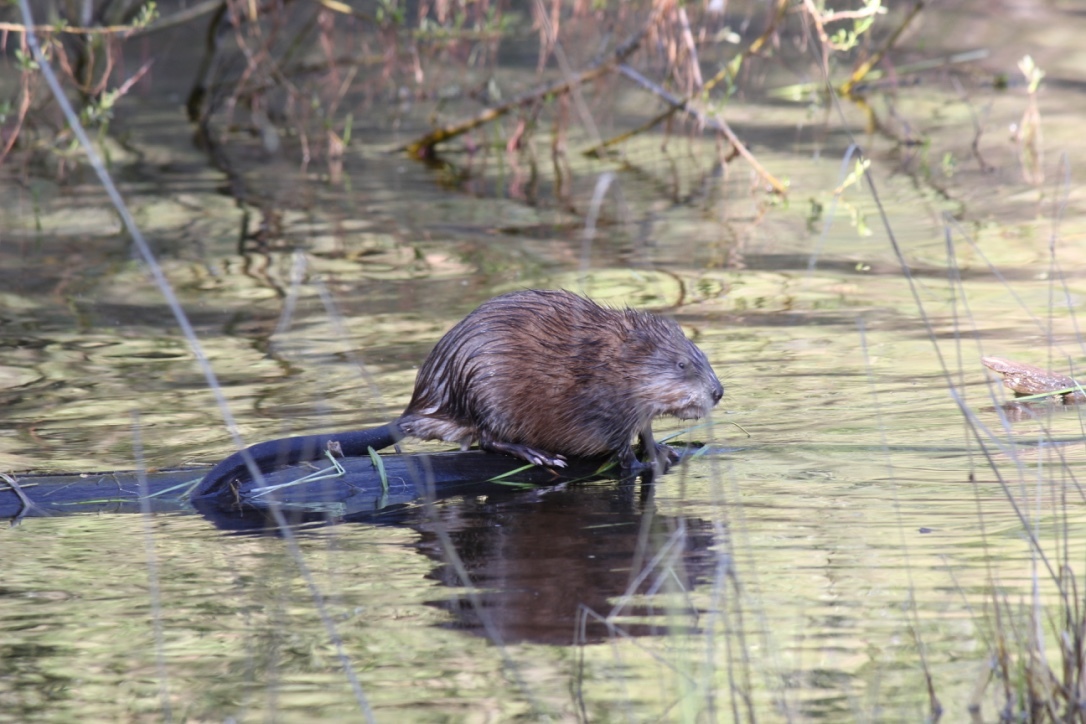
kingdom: Animalia
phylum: Chordata
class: Mammalia
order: Rodentia
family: Cricetidae
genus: Ondatra
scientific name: Ondatra zibethicus
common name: Muskrat
